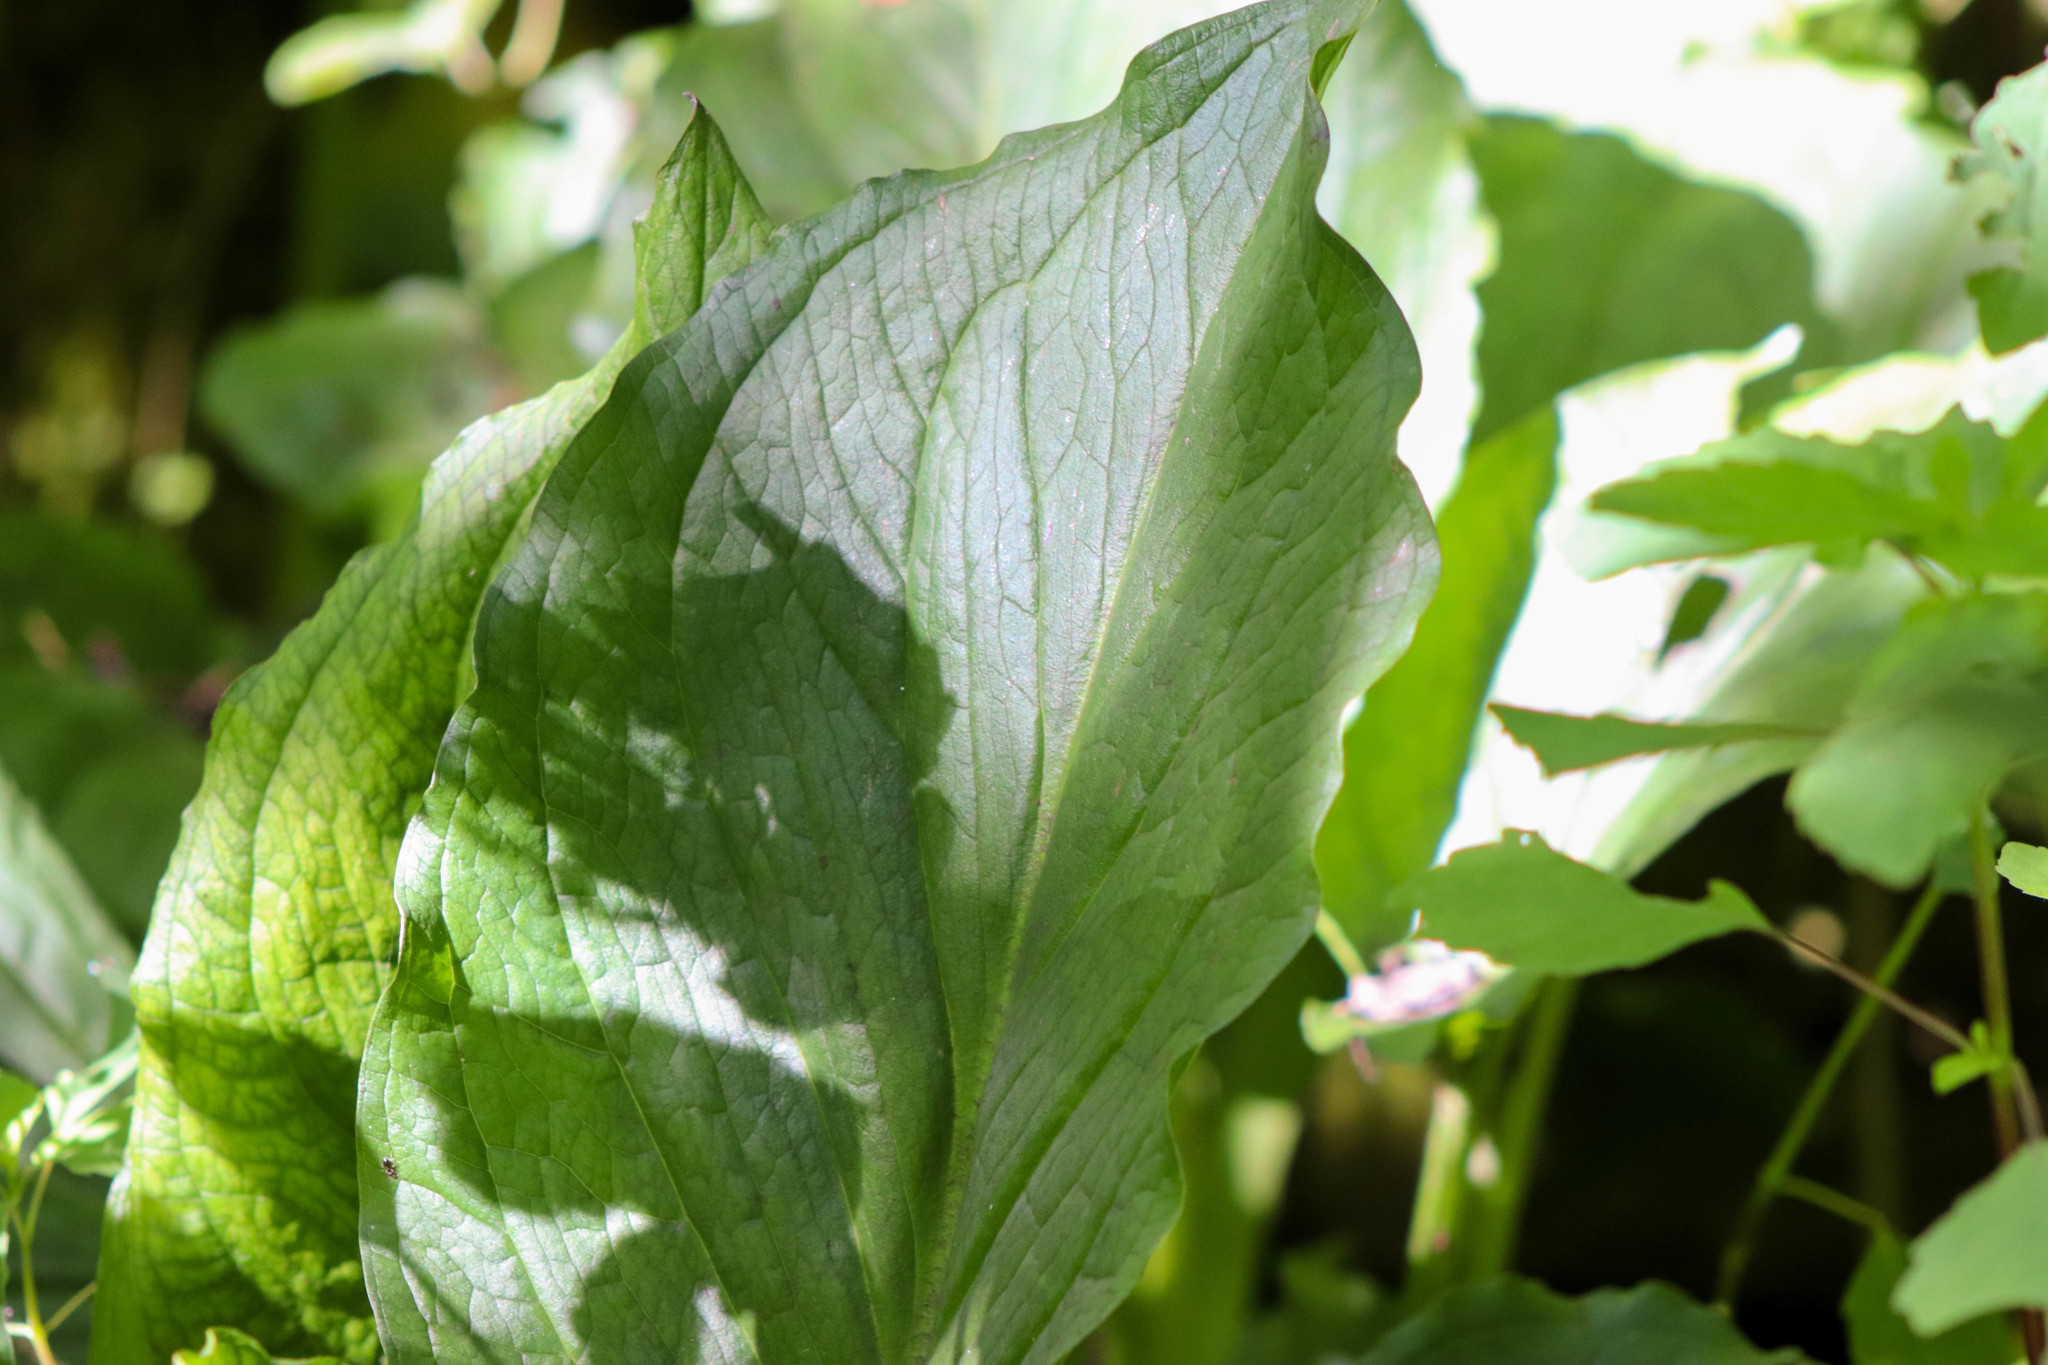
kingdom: Plantae
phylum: Tracheophyta
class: Liliopsida
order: Alismatales
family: Araceae
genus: Symplocarpus
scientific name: Symplocarpus foetidus
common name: Eastern skunk cabbage
